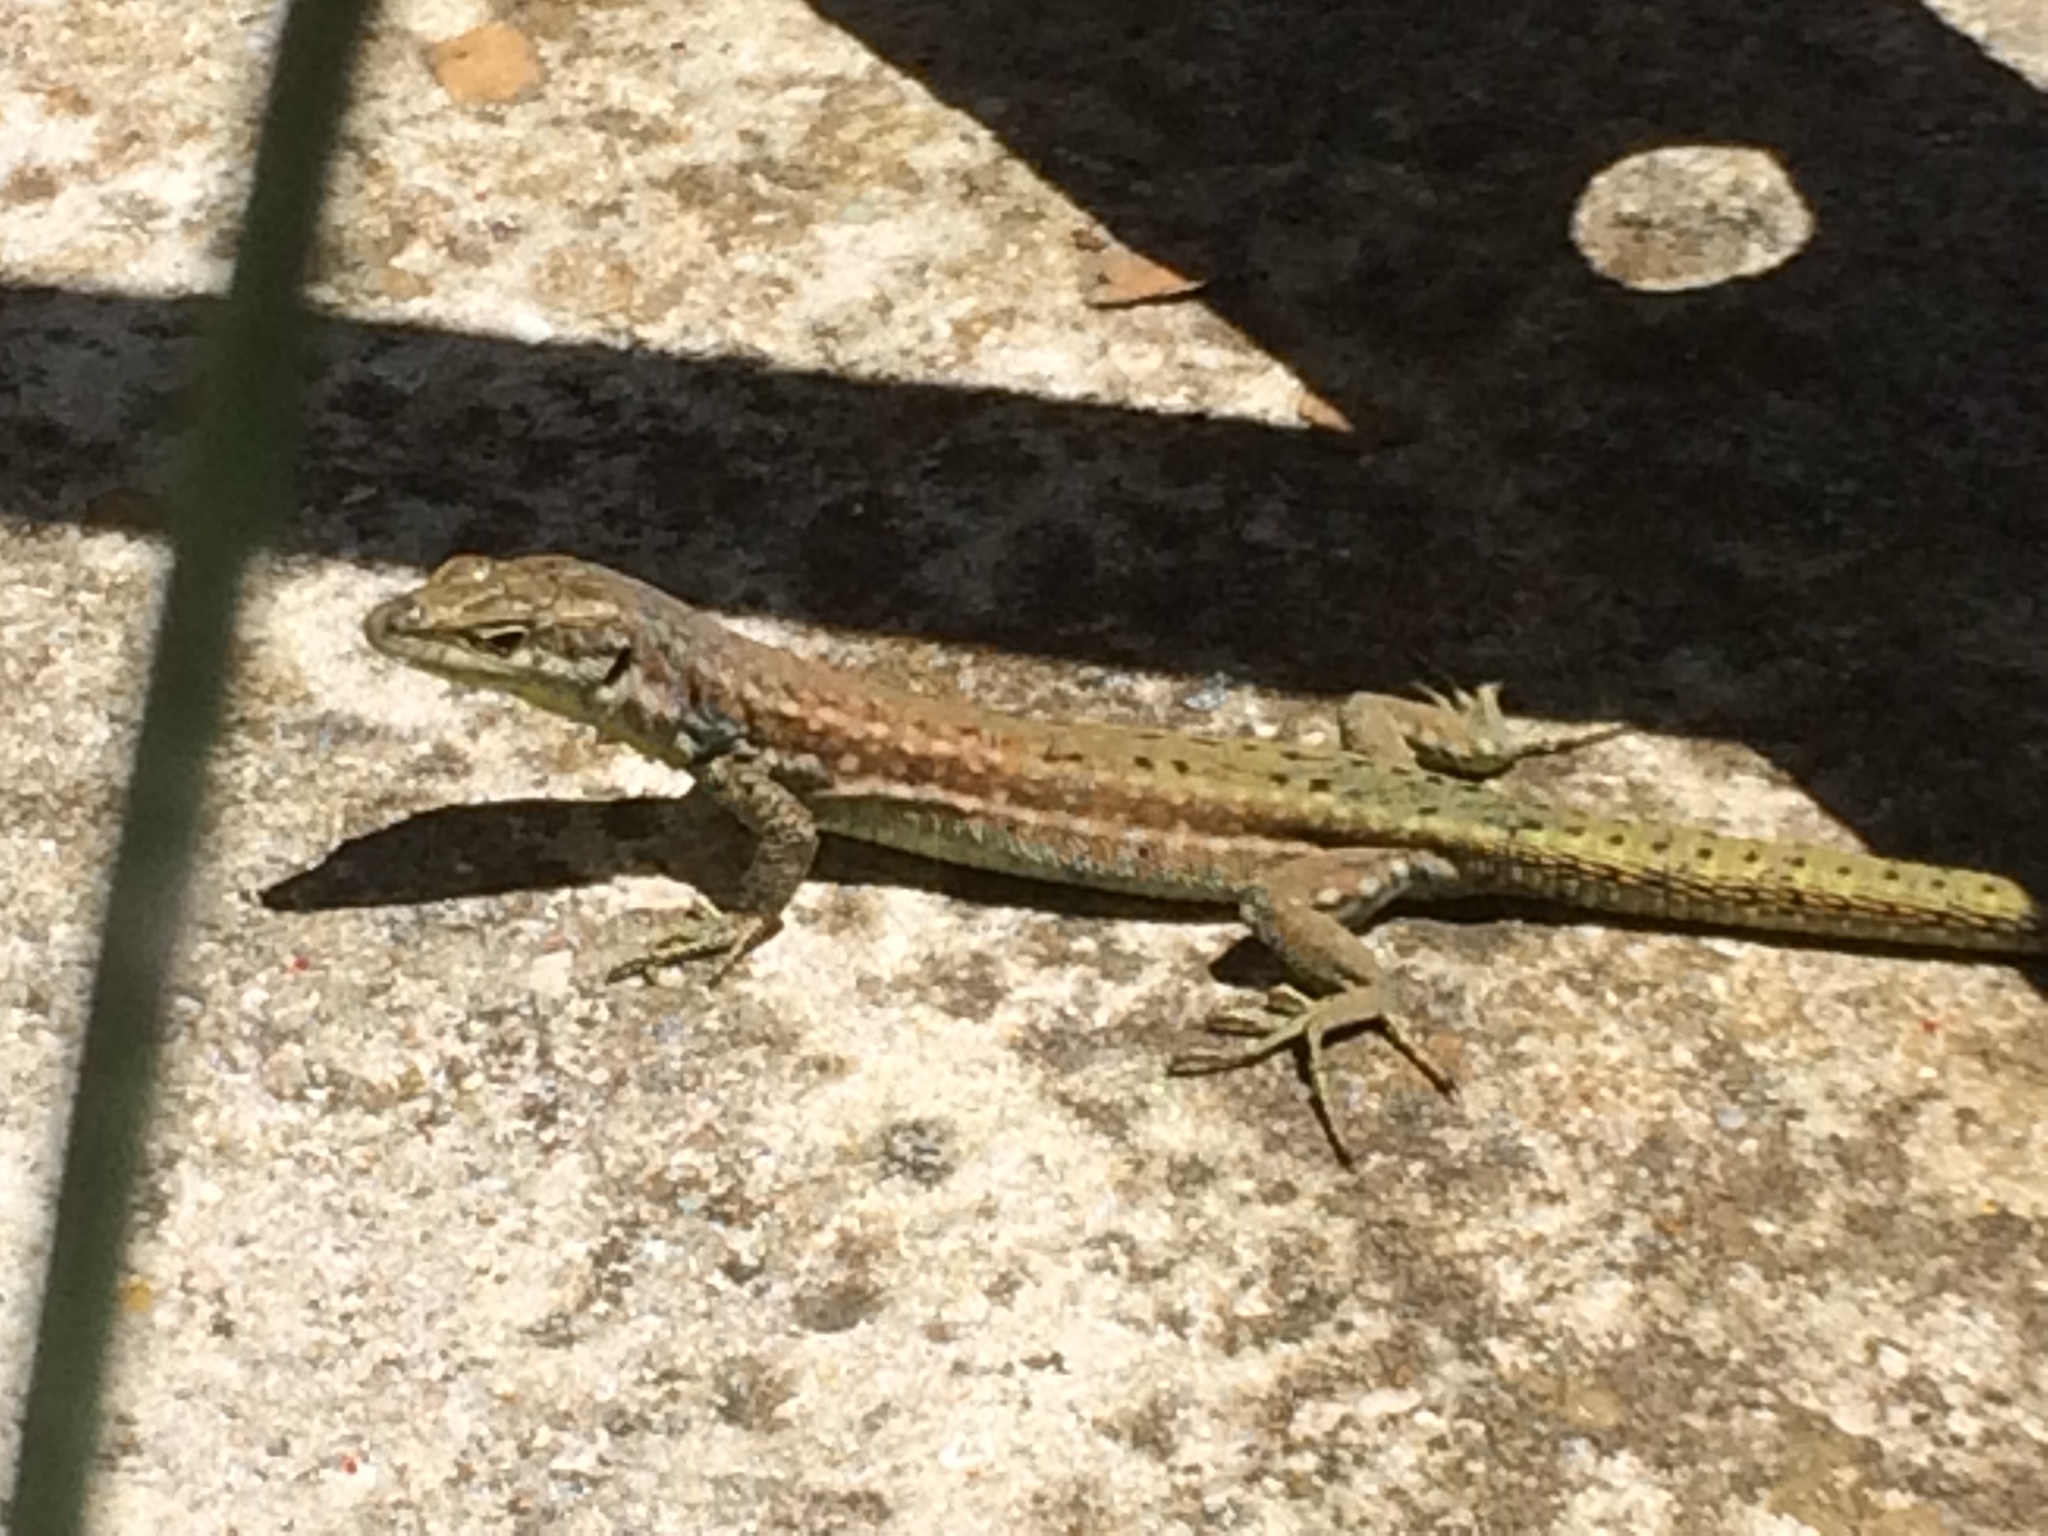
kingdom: Animalia
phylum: Chordata
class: Squamata
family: Lacertidae
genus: Podarcis
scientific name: Podarcis virescens
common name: Geniez’s wall lizard
